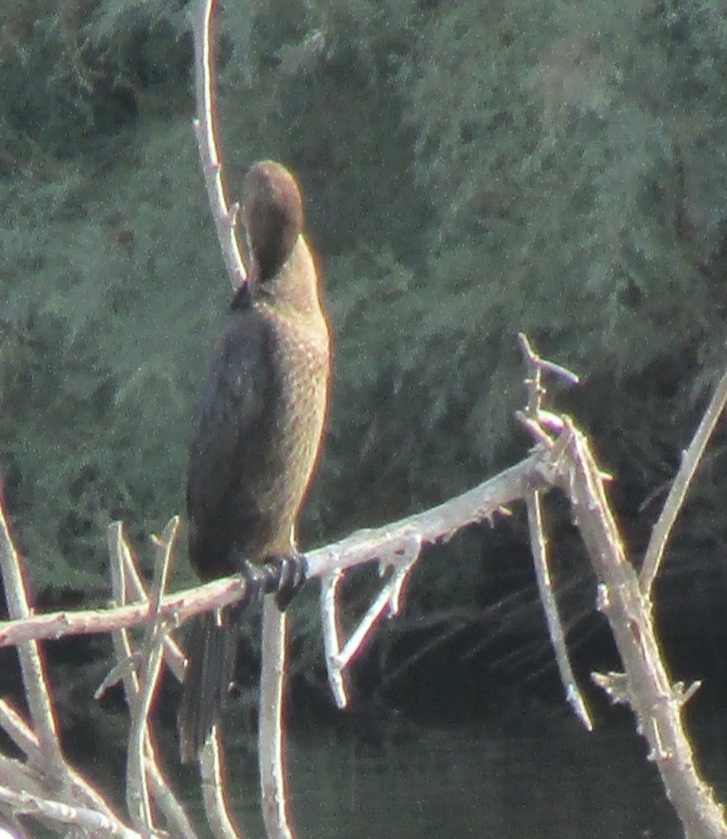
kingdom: Animalia
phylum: Chordata
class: Aves
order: Suliformes
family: Phalacrocoracidae
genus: Microcarbo
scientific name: Microcarbo pygmaeus
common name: Pygmy cormorant
